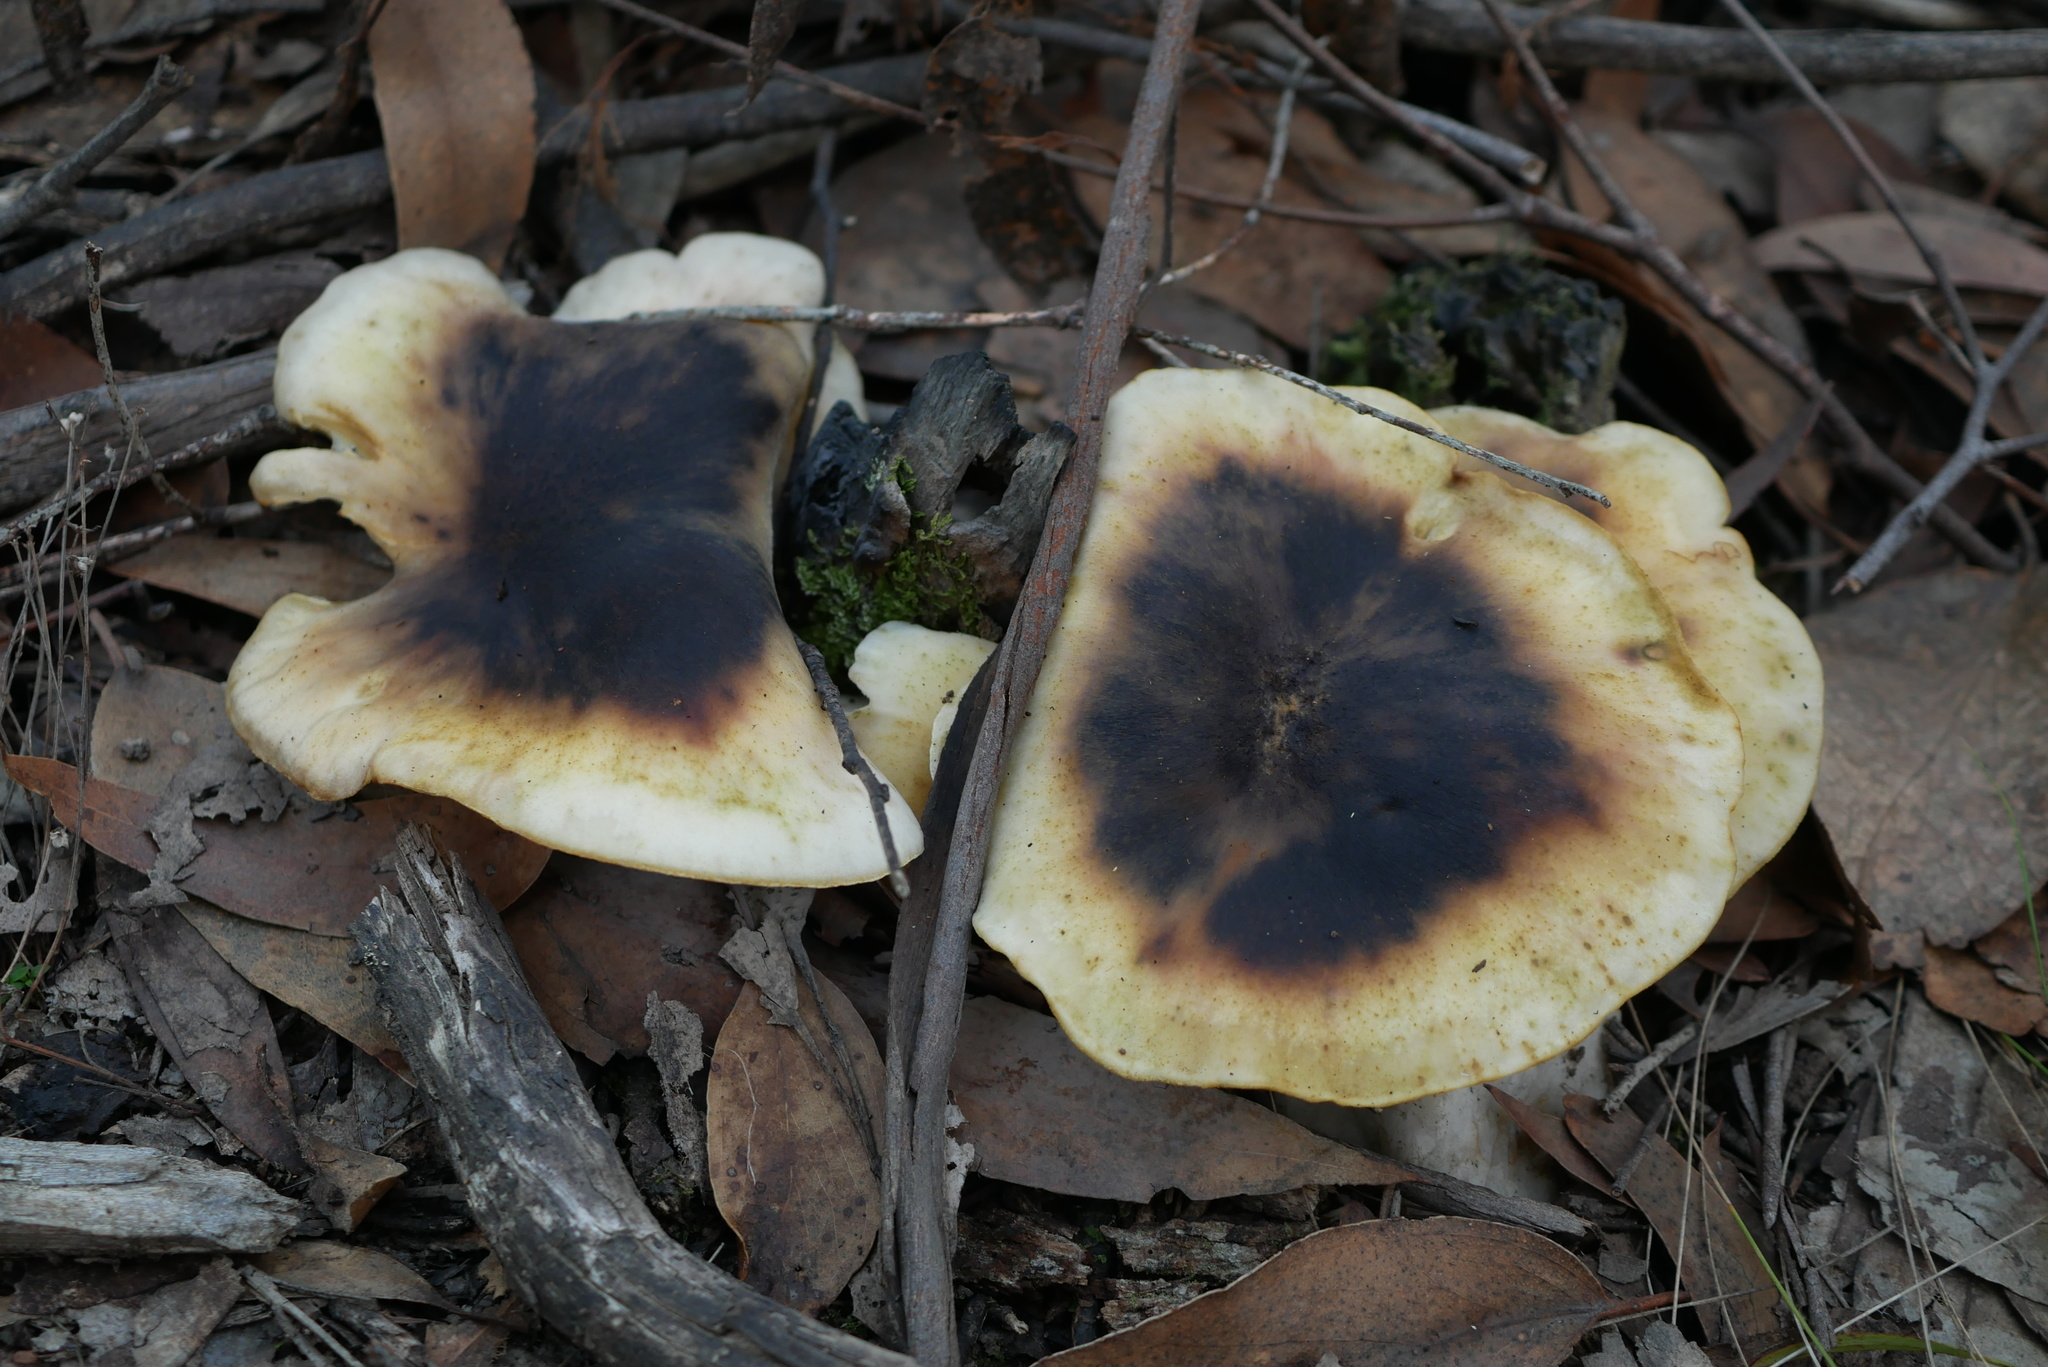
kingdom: Fungi
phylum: Basidiomycota
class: Agaricomycetes
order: Agaricales
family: Omphalotaceae
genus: Omphalotus
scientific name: Omphalotus nidiformis
